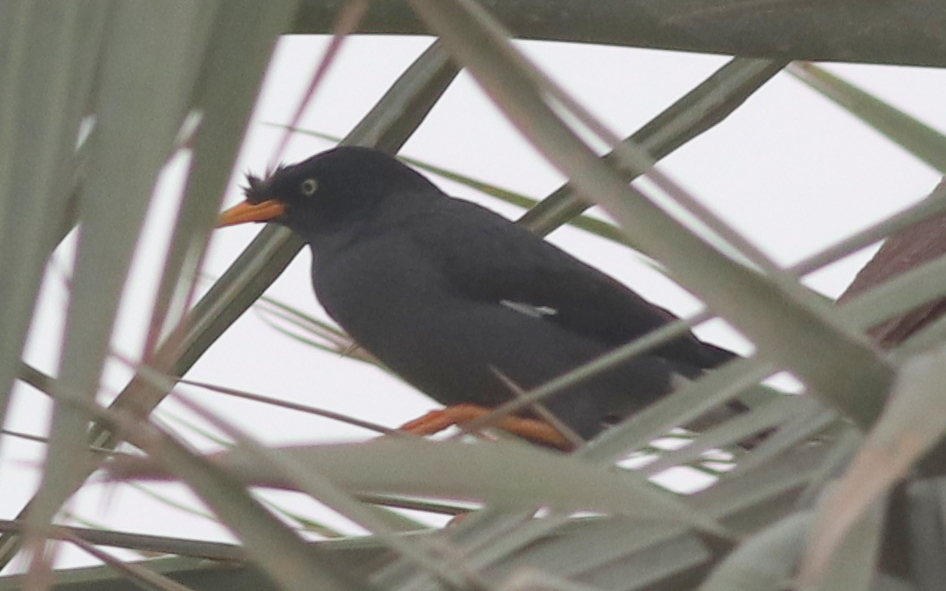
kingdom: Animalia
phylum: Chordata
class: Aves
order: Passeriformes
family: Sturnidae
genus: Acridotheres
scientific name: Acridotheres javanicus
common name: Javan myna
